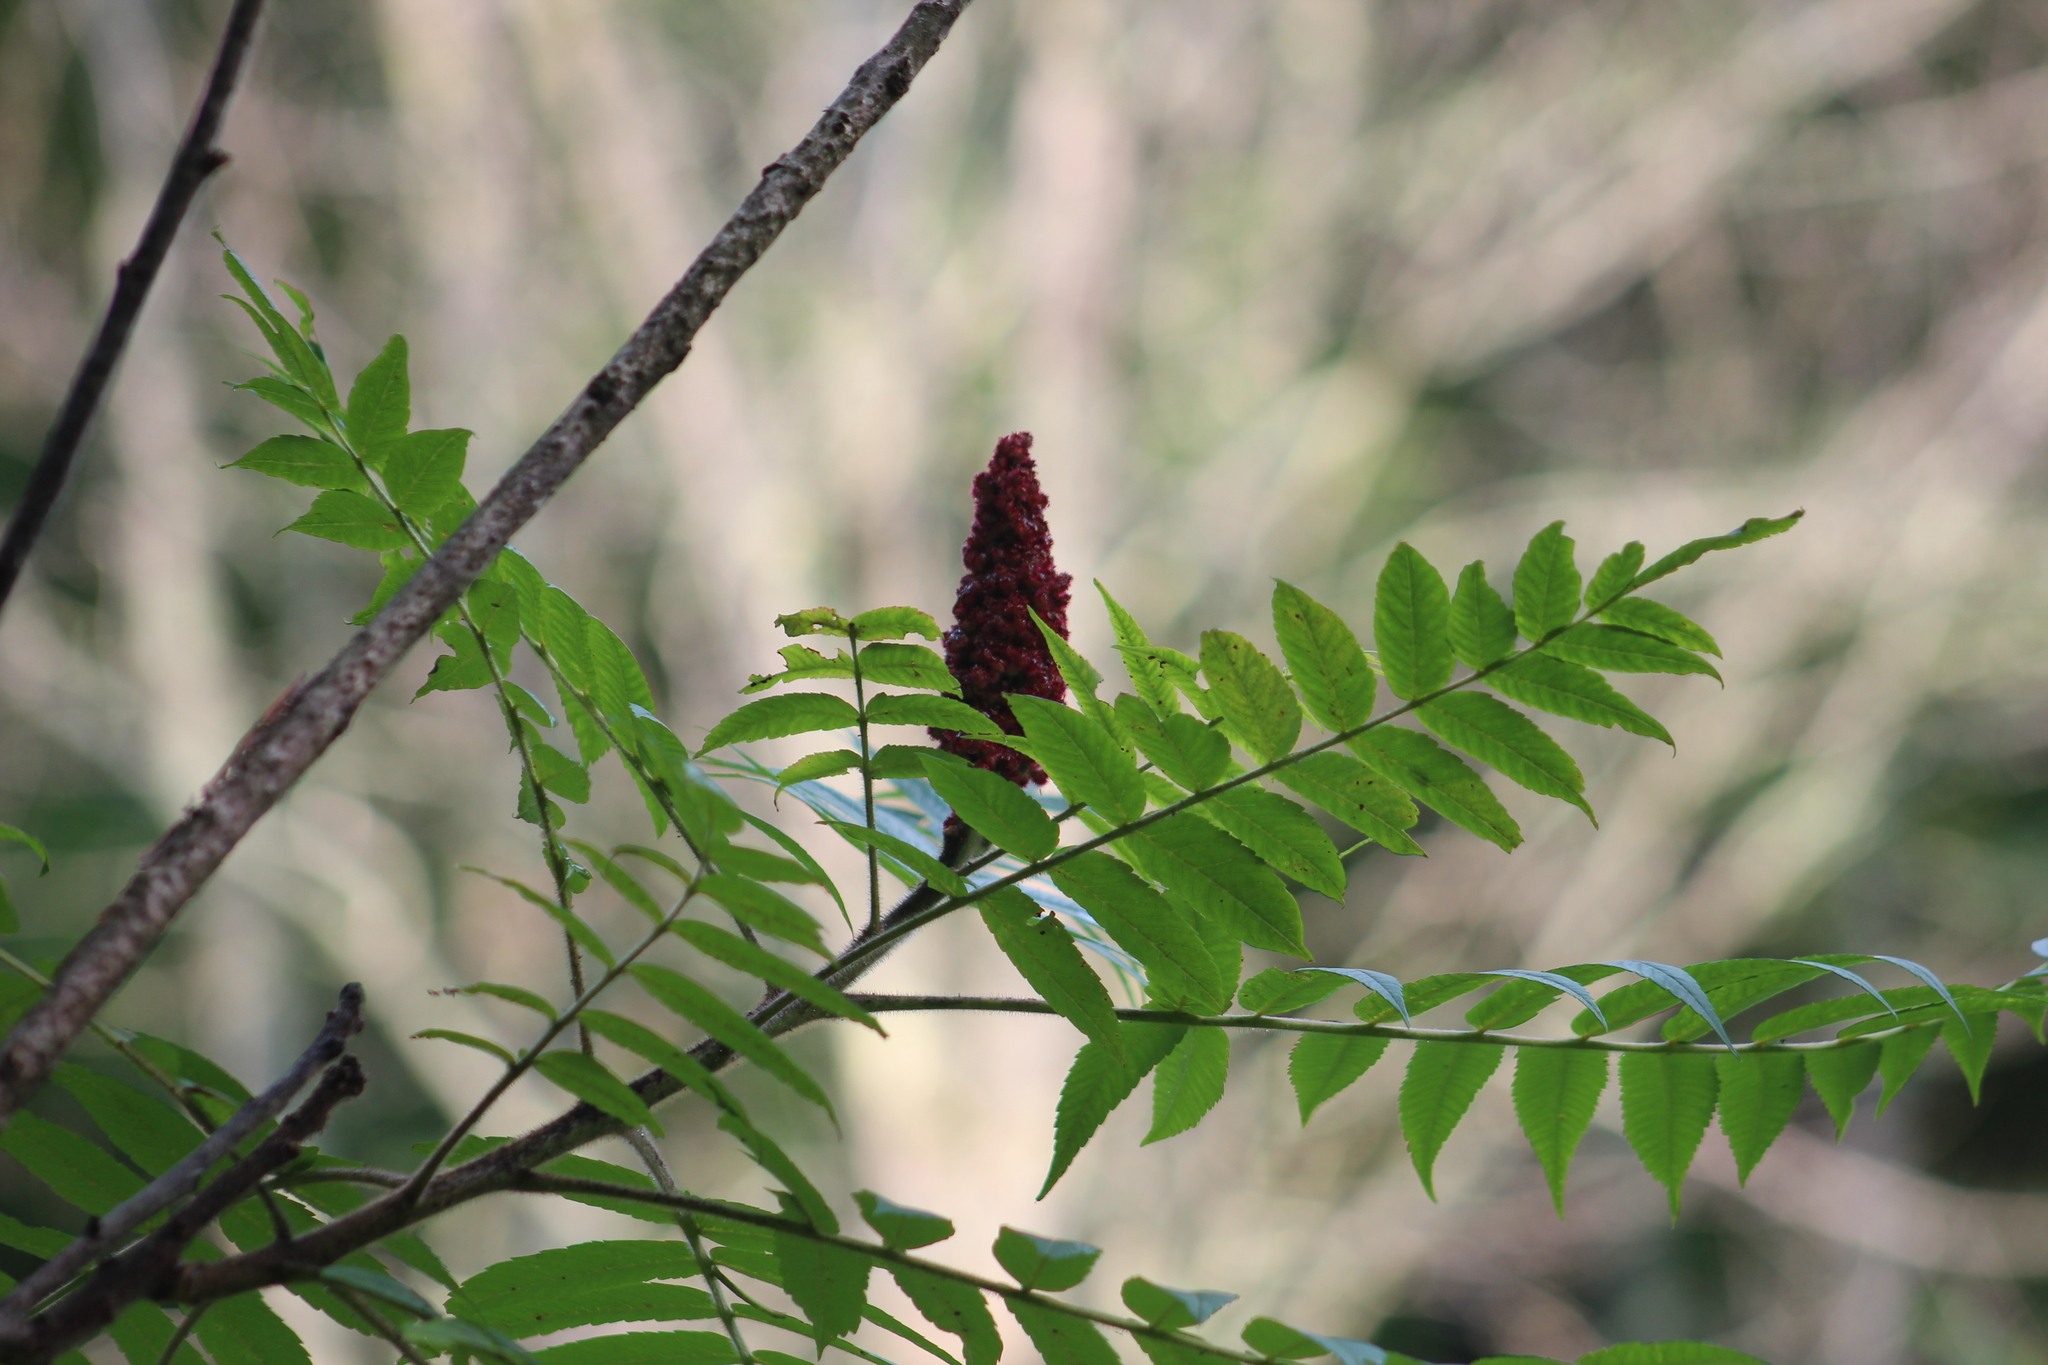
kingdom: Plantae
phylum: Tracheophyta
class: Magnoliopsida
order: Sapindales
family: Anacardiaceae
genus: Rhus
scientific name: Rhus typhina
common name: Staghorn sumac
